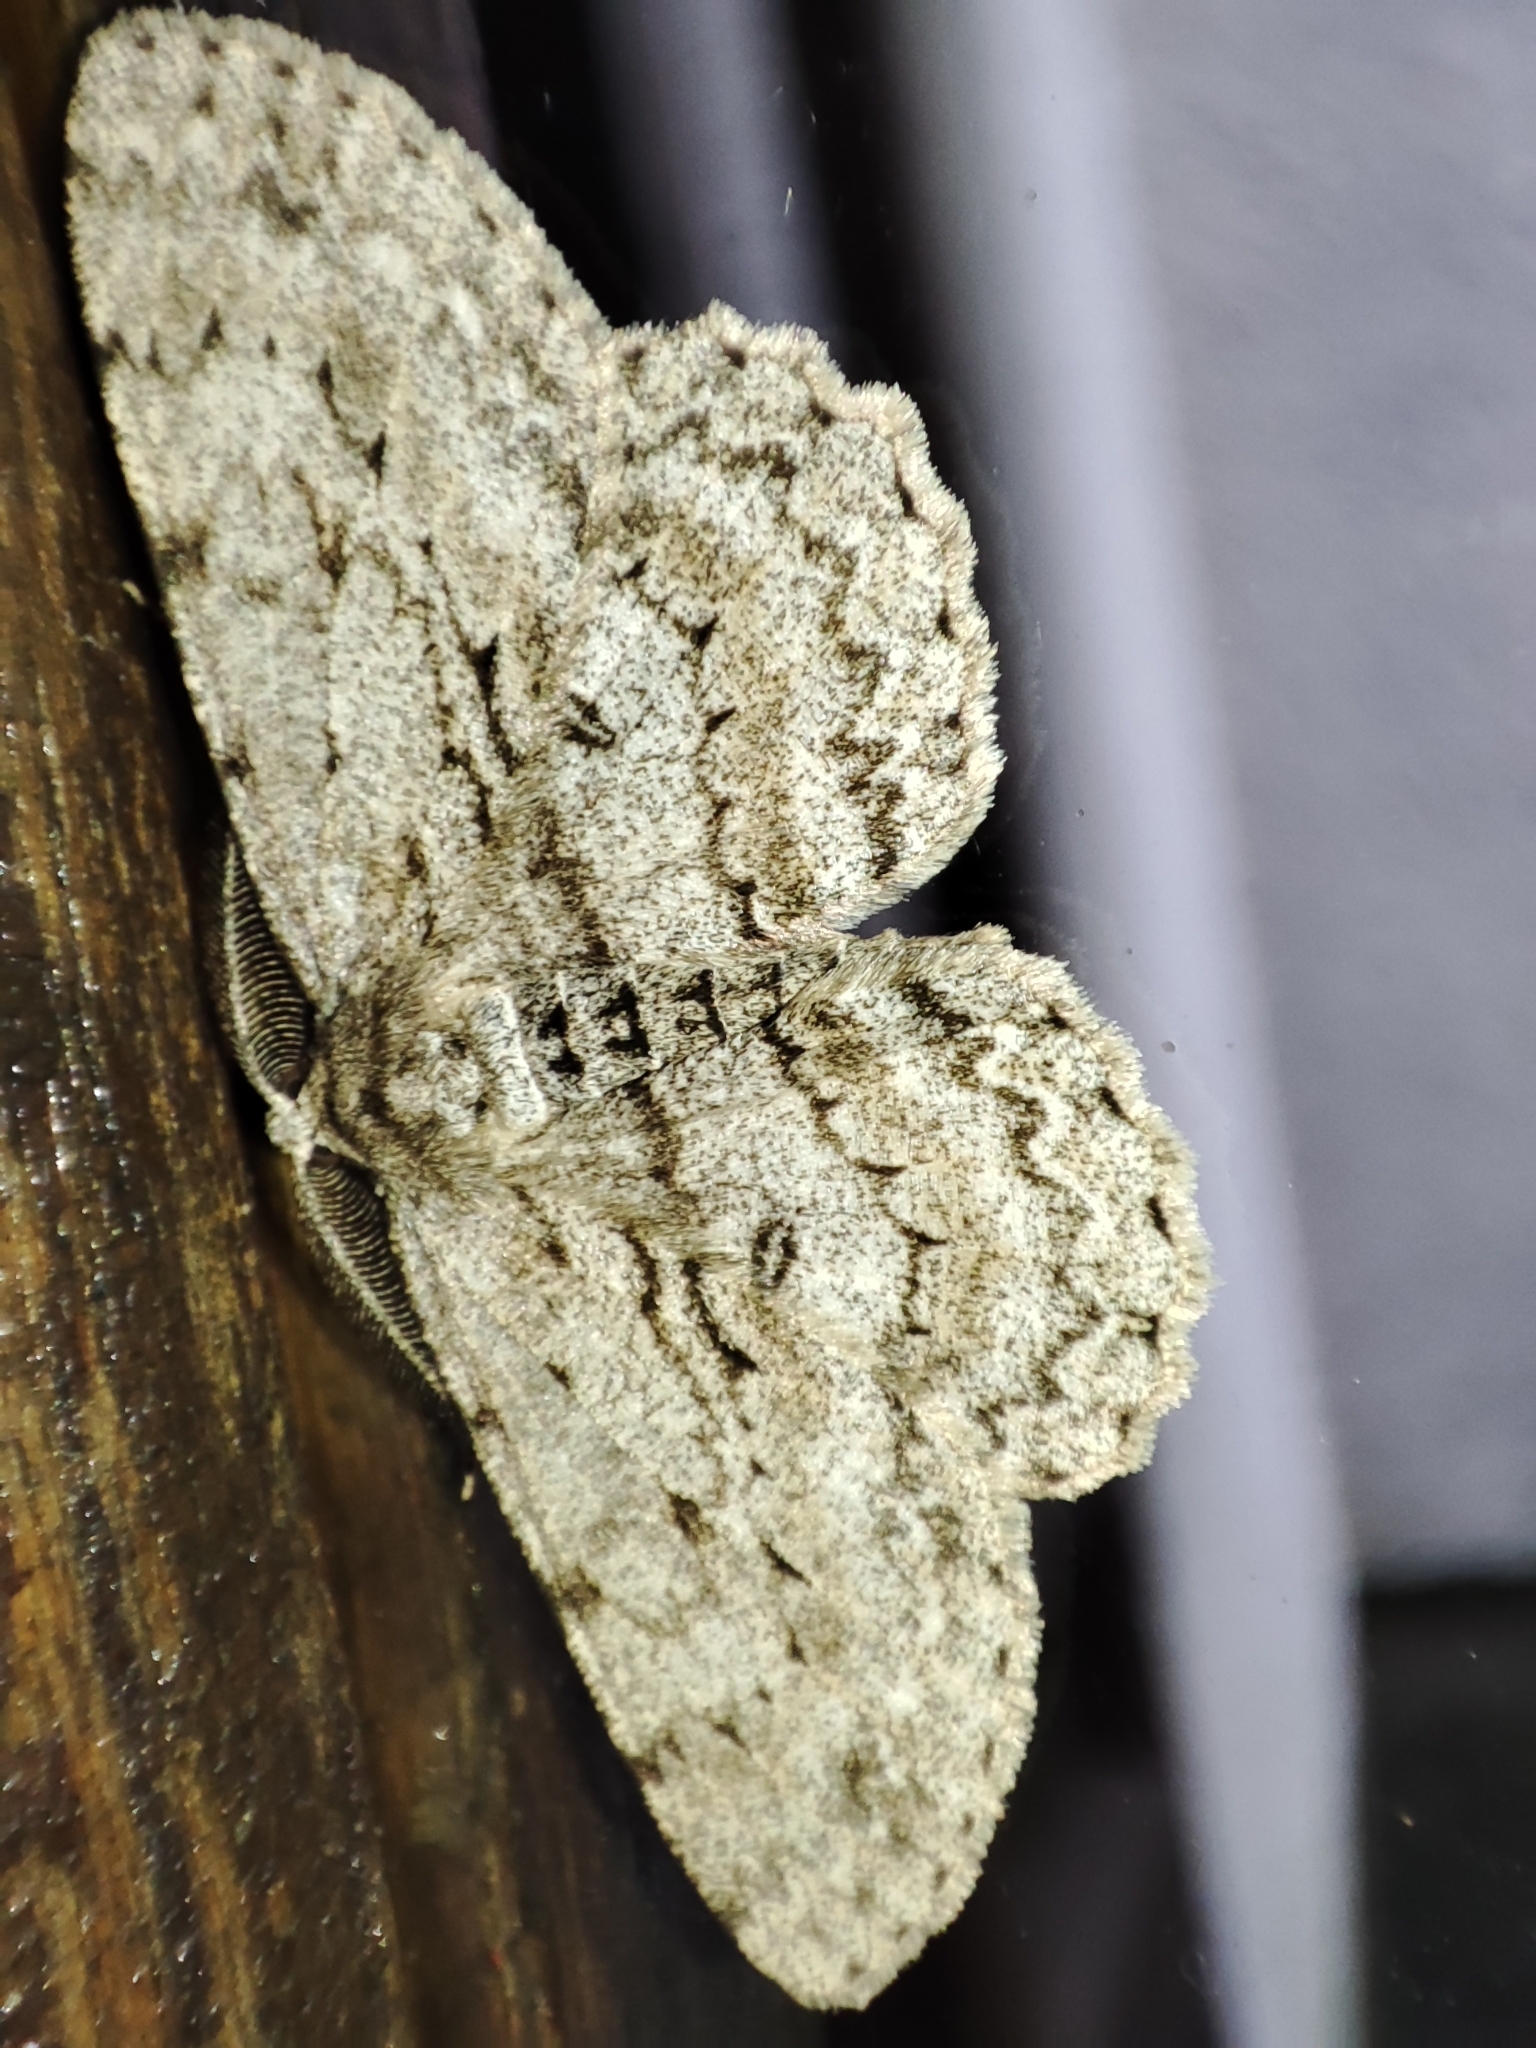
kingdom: Animalia
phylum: Arthropoda
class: Insecta
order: Lepidoptera
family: Geometridae
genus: Hypomecis
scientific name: Hypomecis punctinalis
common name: Pale oak beauty
